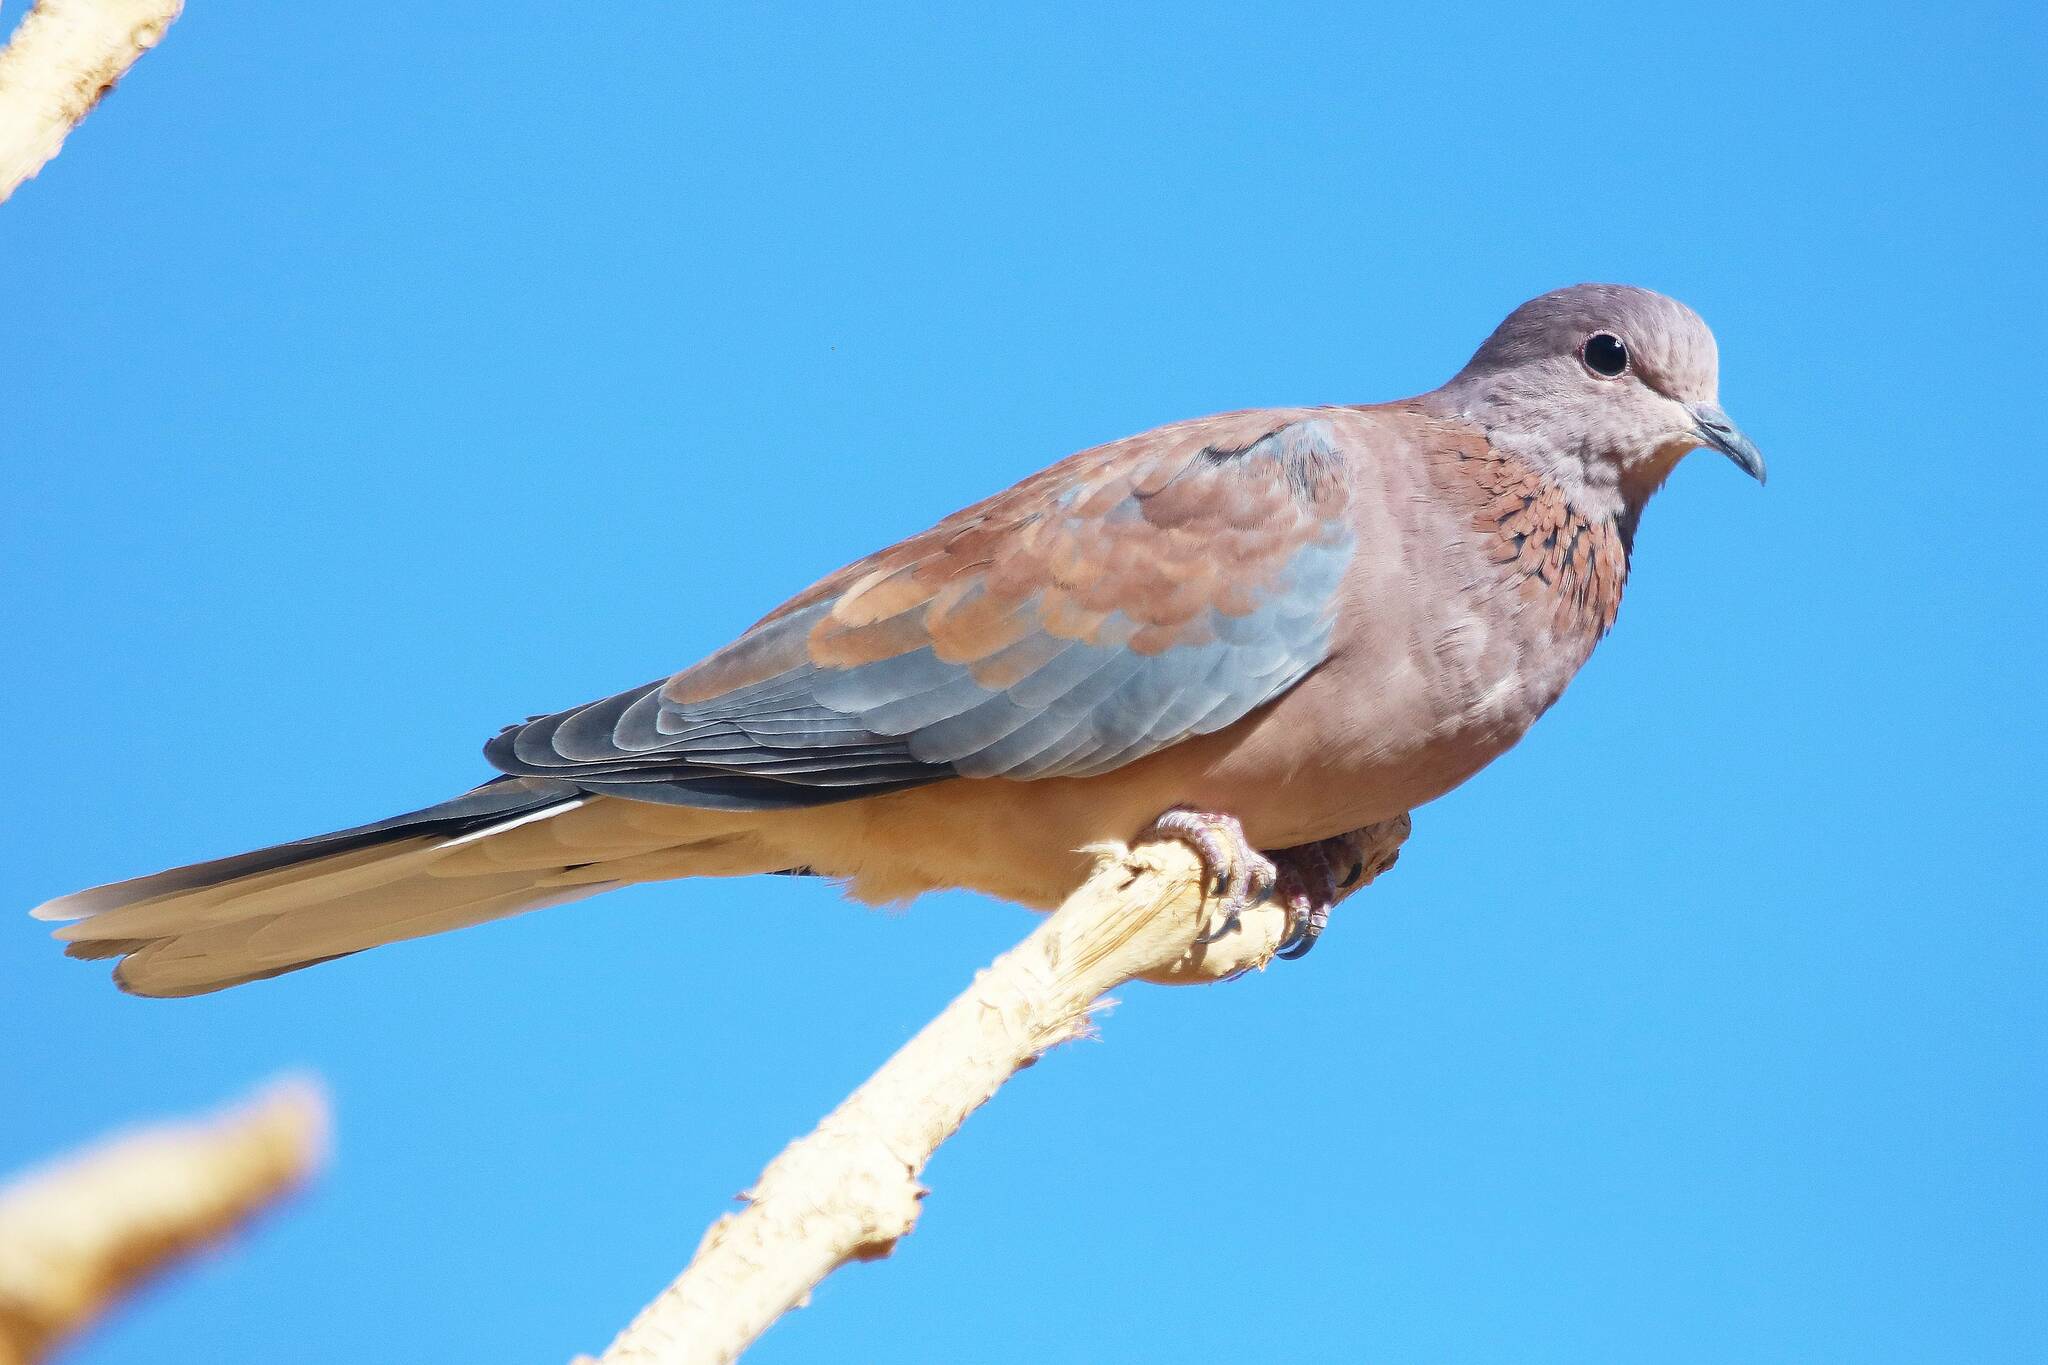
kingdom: Animalia
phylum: Chordata
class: Aves
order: Columbiformes
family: Columbidae
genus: Spilopelia
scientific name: Spilopelia senegalensis
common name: Laughing dove
